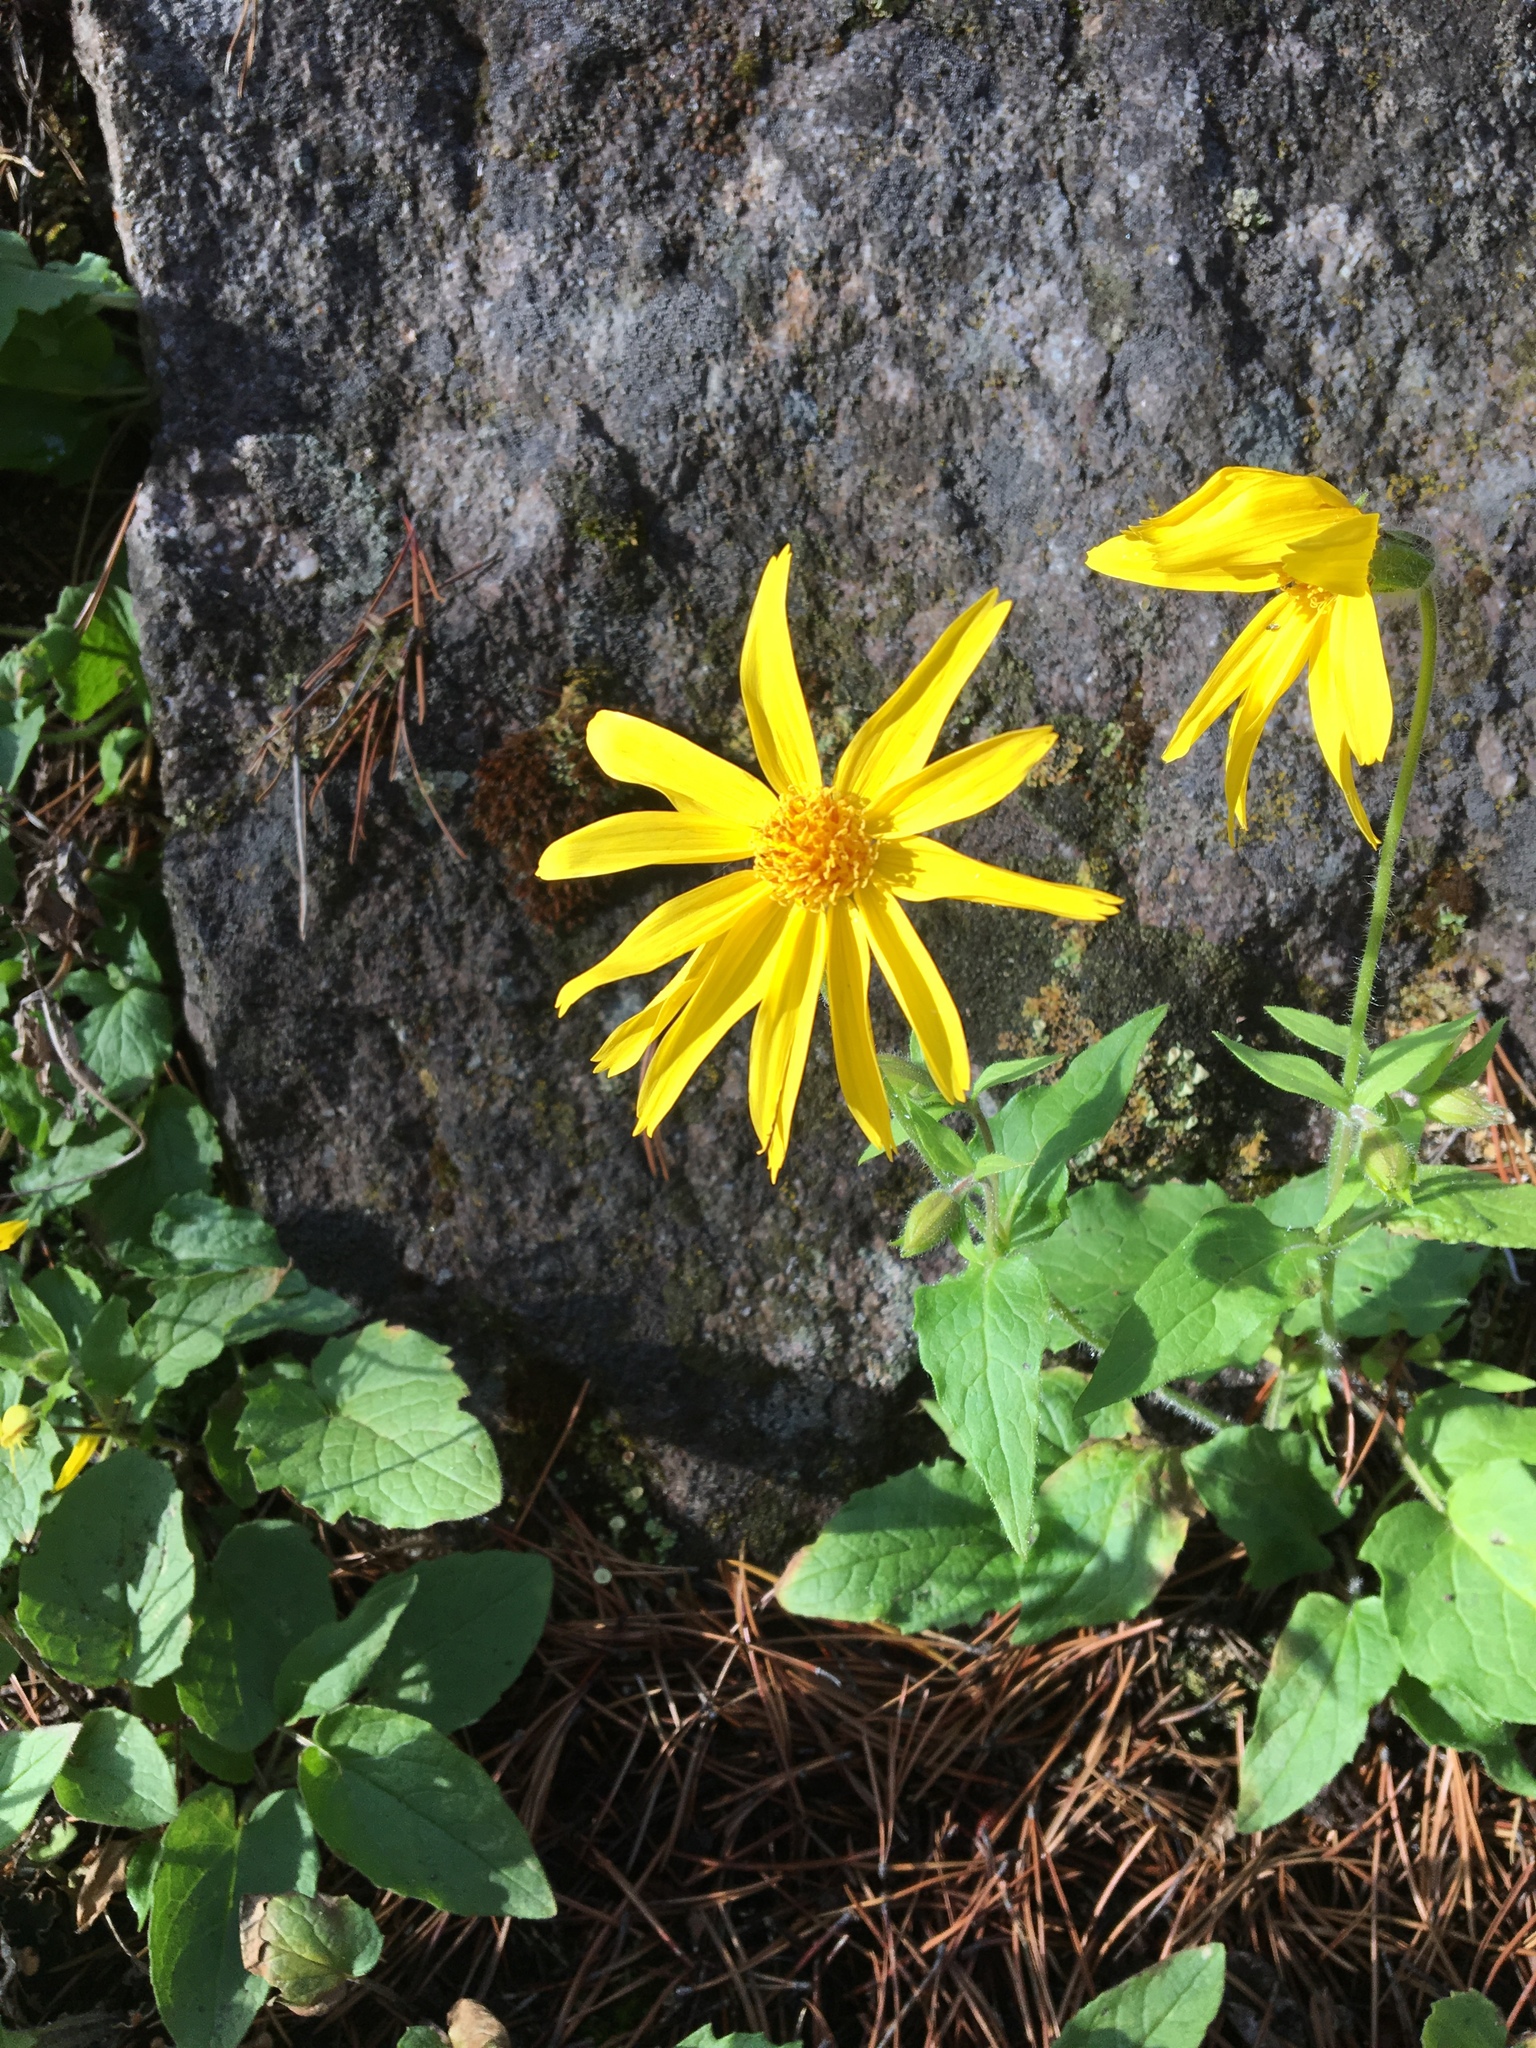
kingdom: Plantae
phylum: Tracheophyta
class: Magnoliopsida
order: Asterales
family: Asteraceae
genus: Arnica
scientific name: Arnica cordifolia
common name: Heart-leaf arnica
